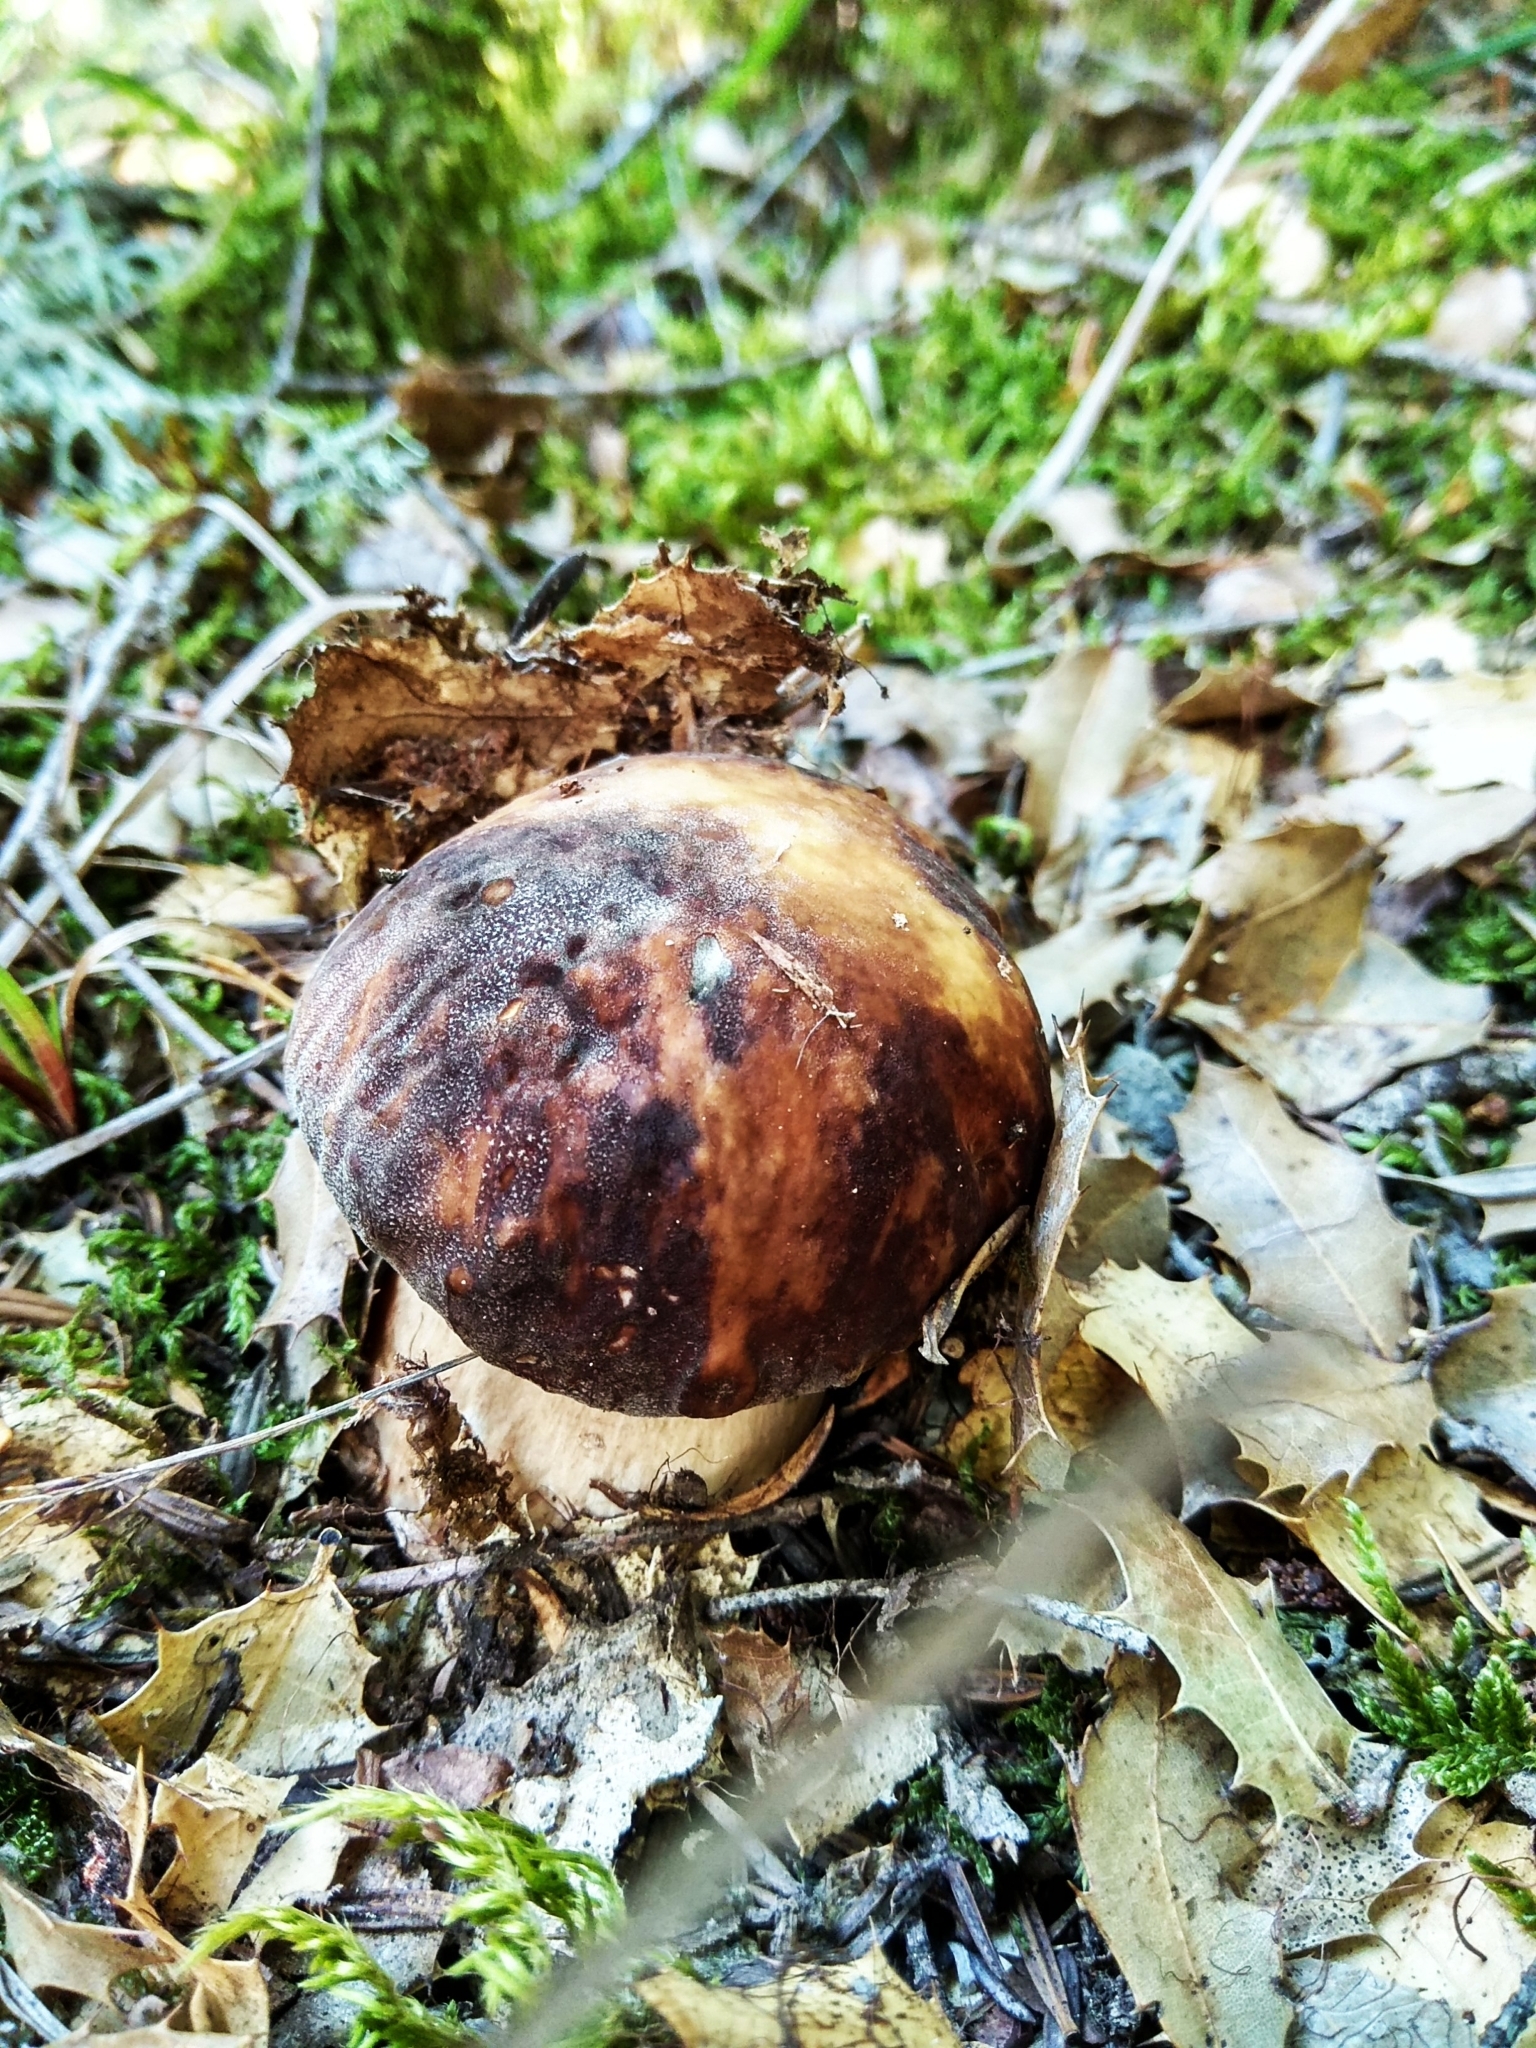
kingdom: Fungi
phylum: Basidiomycota
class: Agaricomycetes
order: Boletales
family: Boletaceae
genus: Boletus
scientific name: Boletus aereus
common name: Bronze bolete
